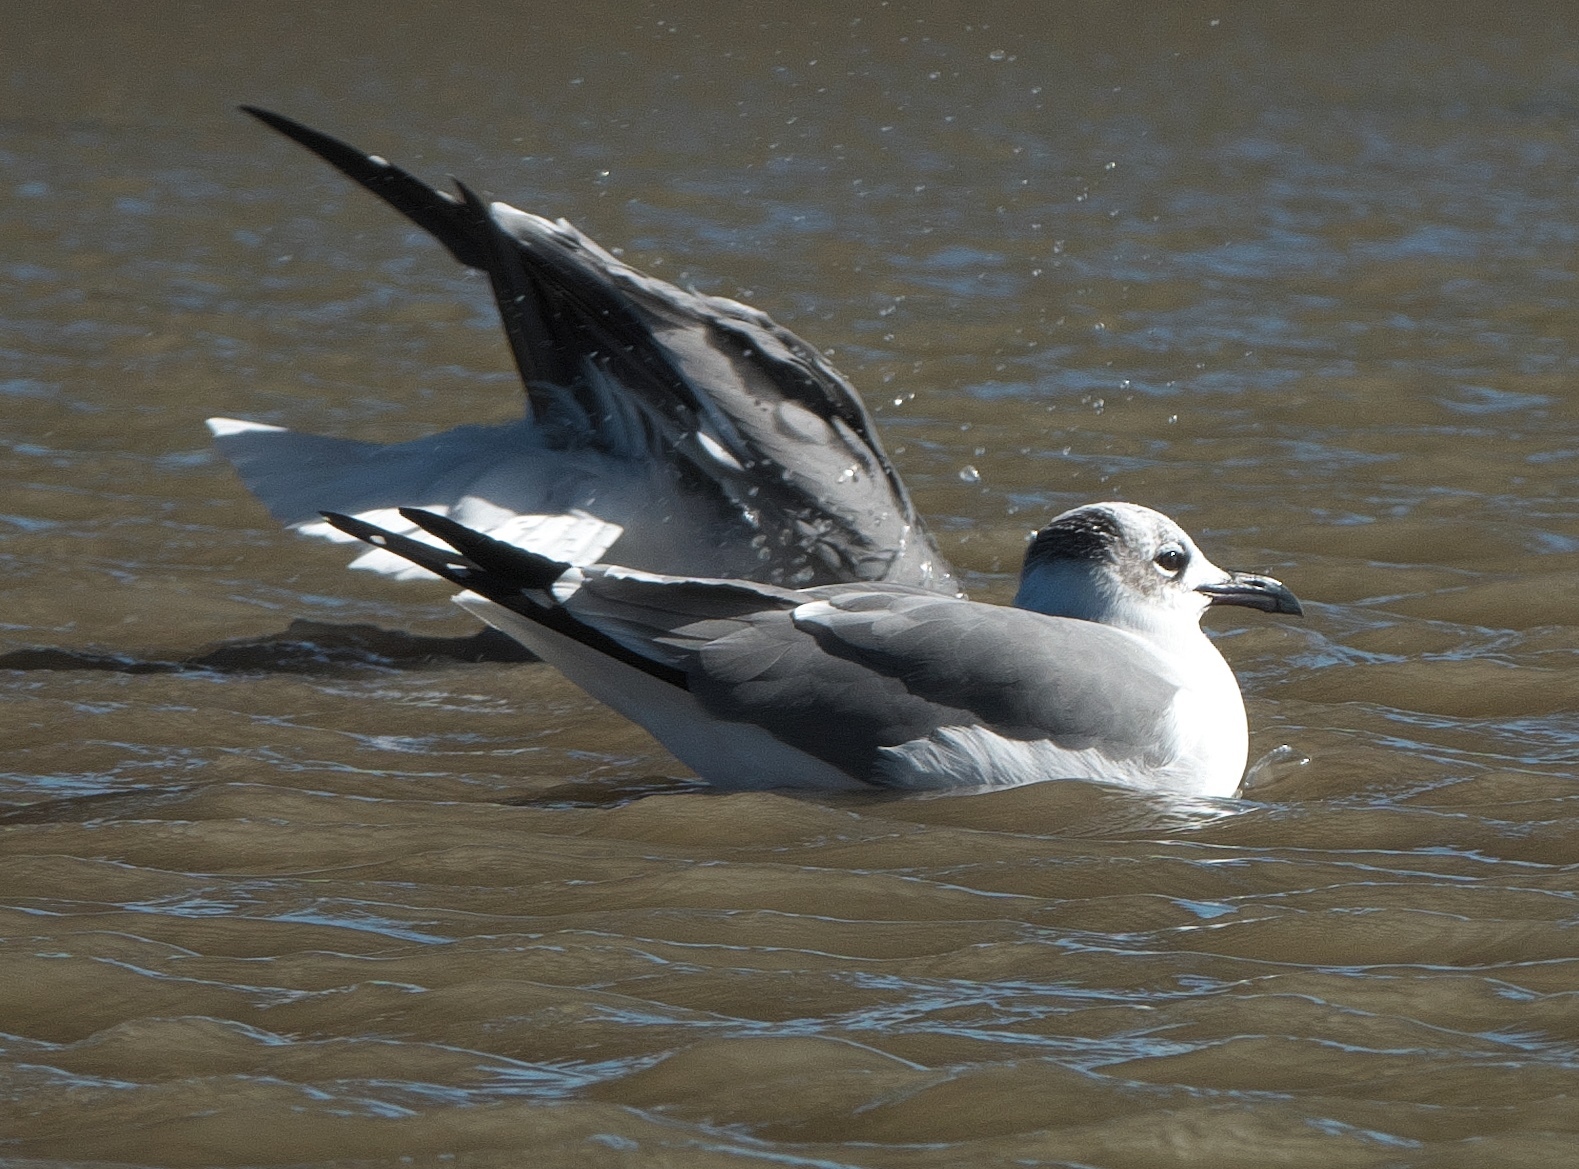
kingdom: Animalia
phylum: Chordata
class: Aves
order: Charadriiformes
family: Laridae
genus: Leucophaeus
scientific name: Leucophaeus atricilla
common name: Laughing gull
